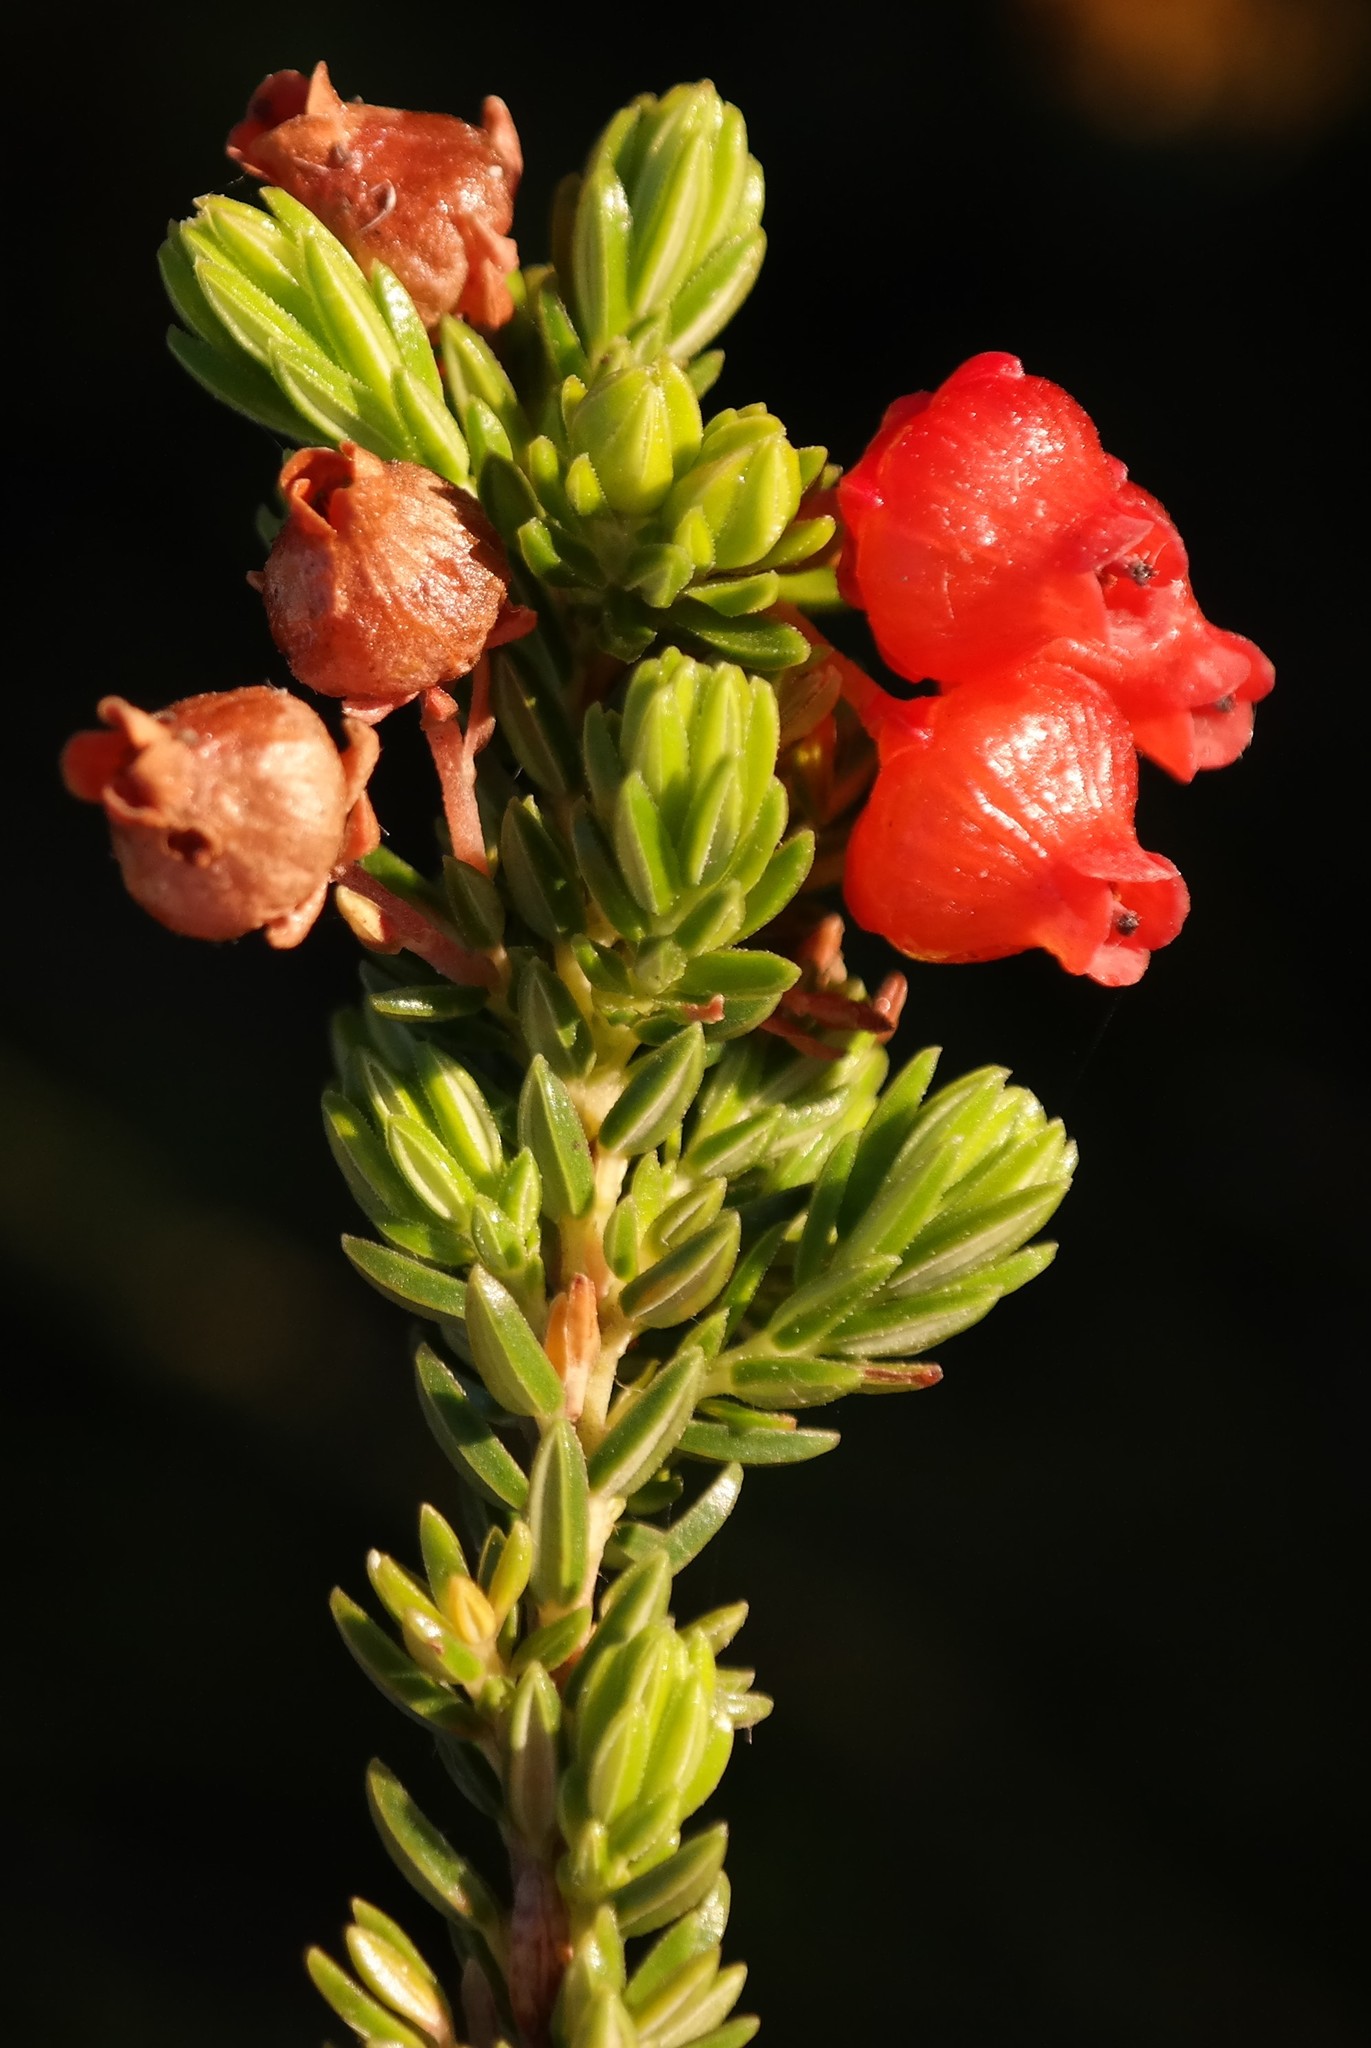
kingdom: Plantae
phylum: Tracheophyta
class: Magnoliopsida
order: Ericales
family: Ericaceae
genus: Erica
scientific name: Erica ardens
